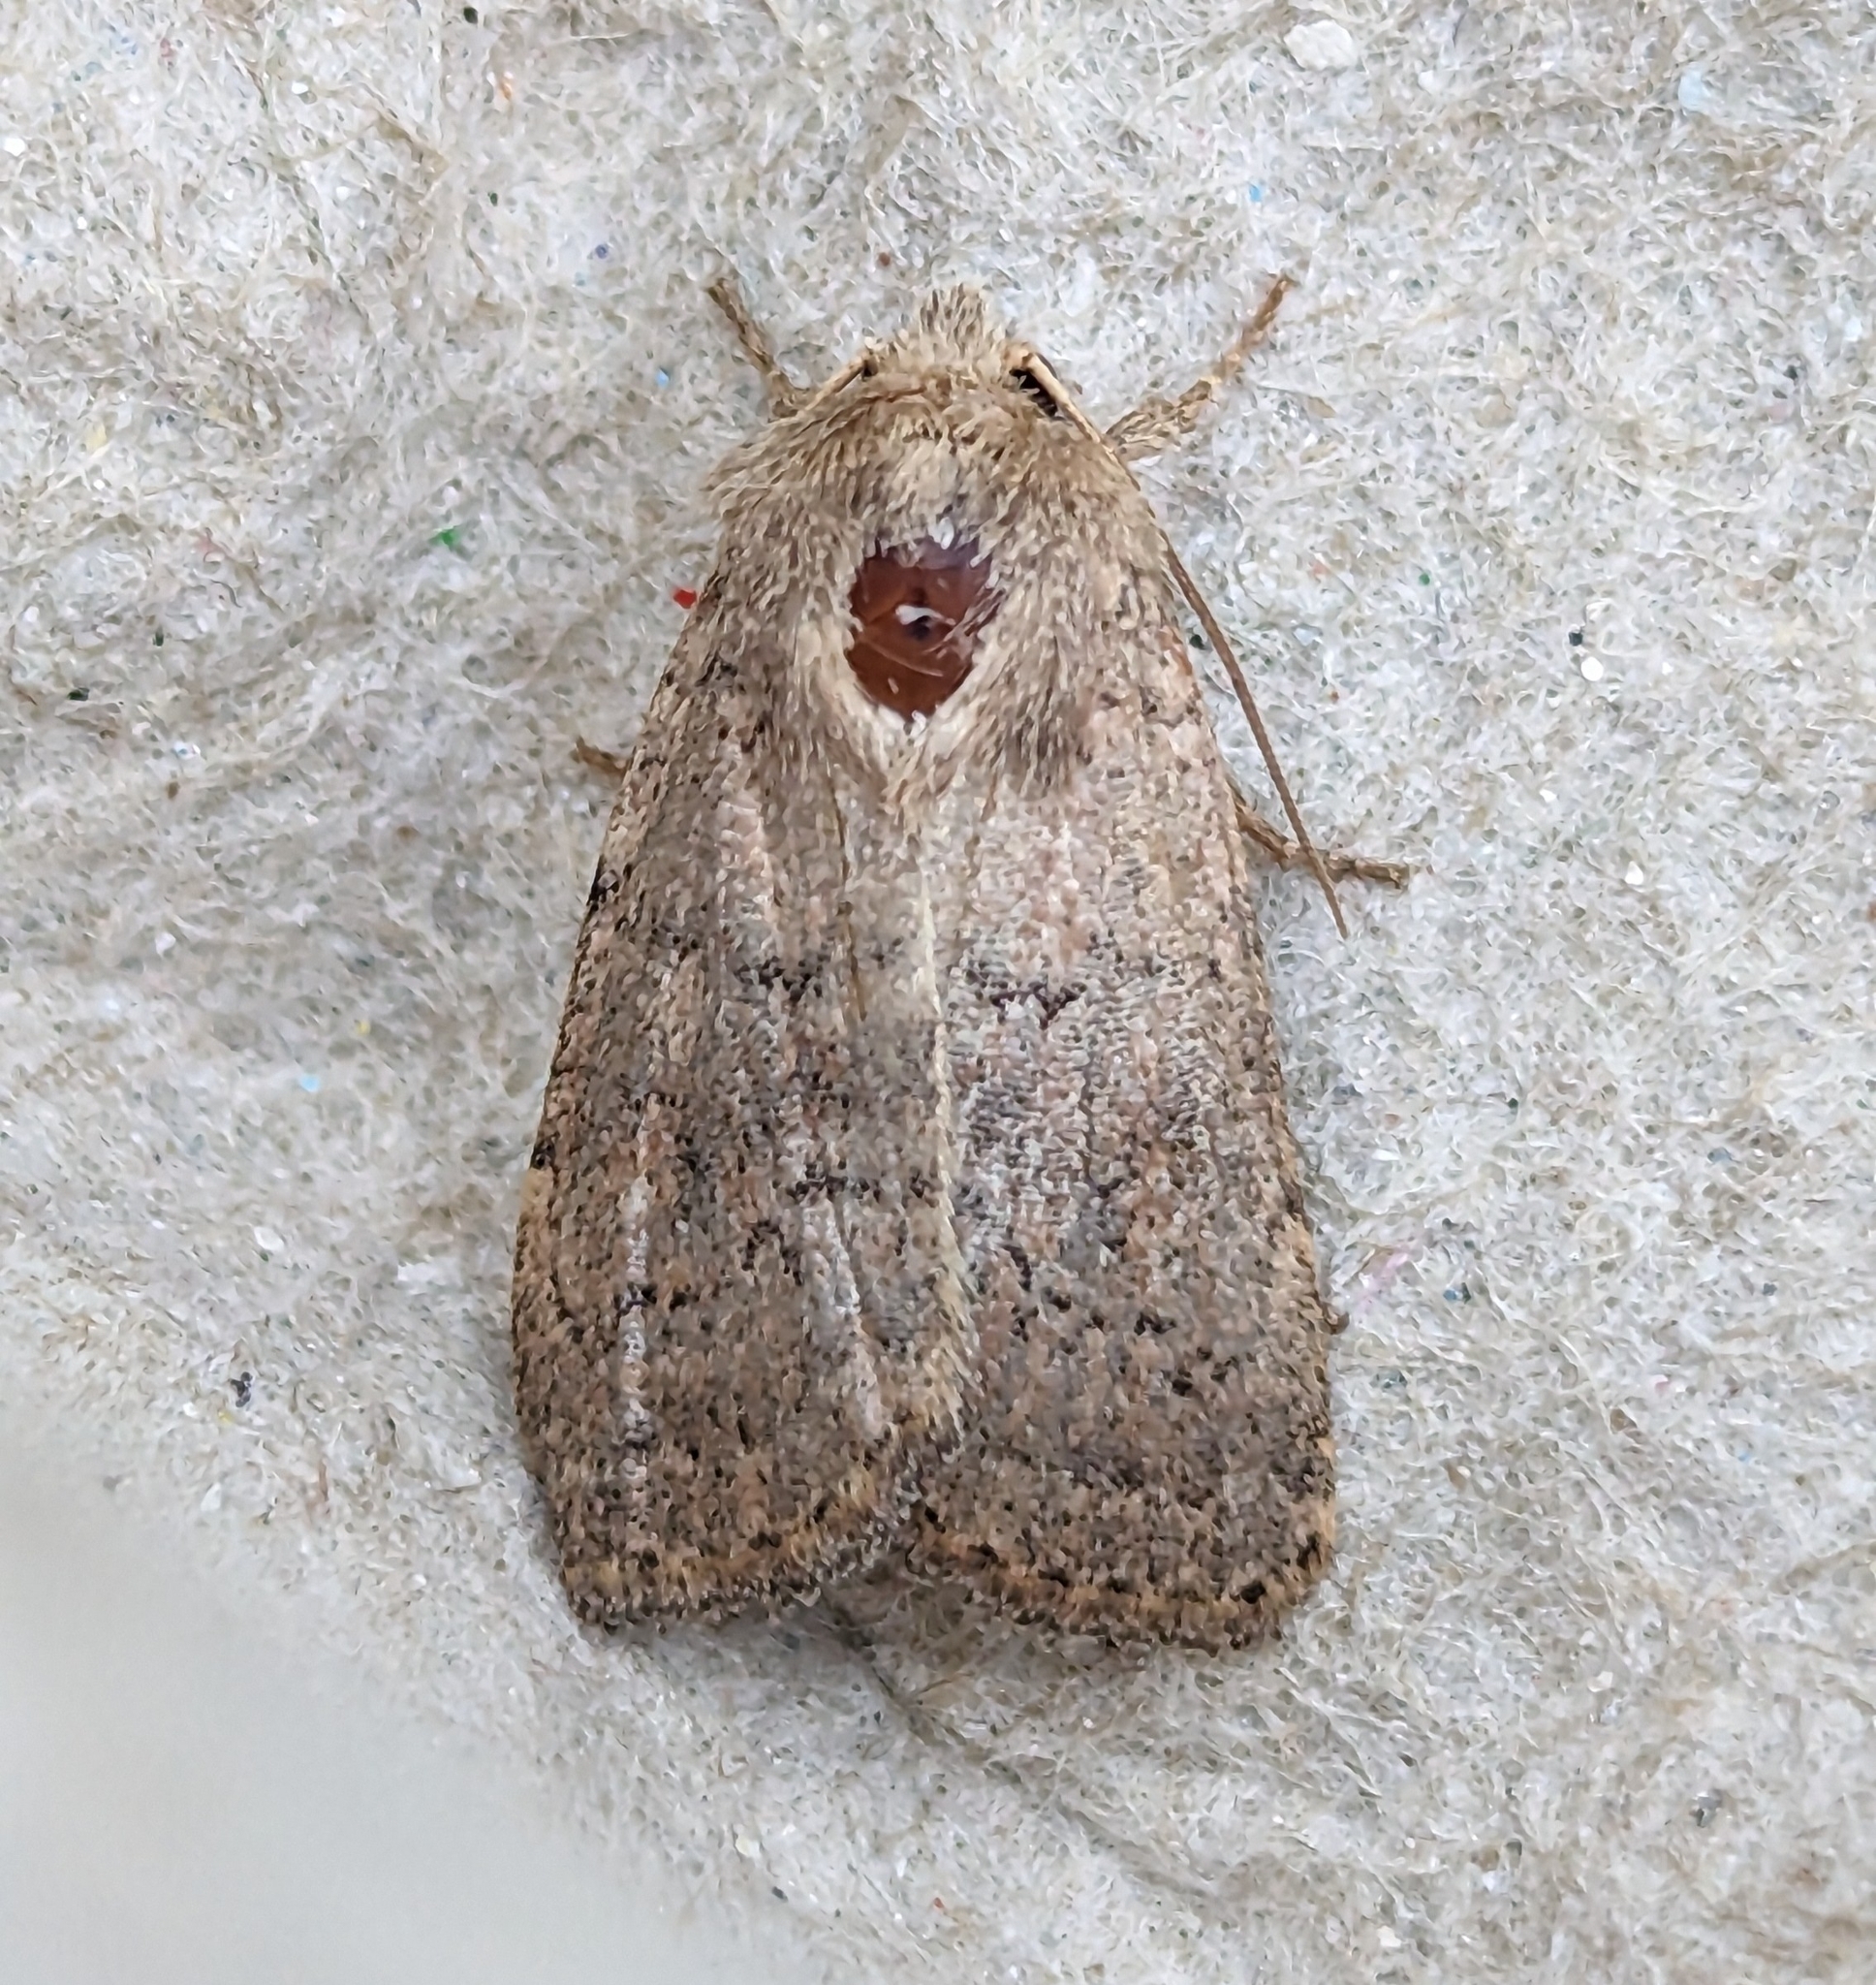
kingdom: Animalia
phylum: Arthropoda
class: Insecta
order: Lepidoptera
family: Noctuidae
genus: Caradrina
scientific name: Caradrina montana
